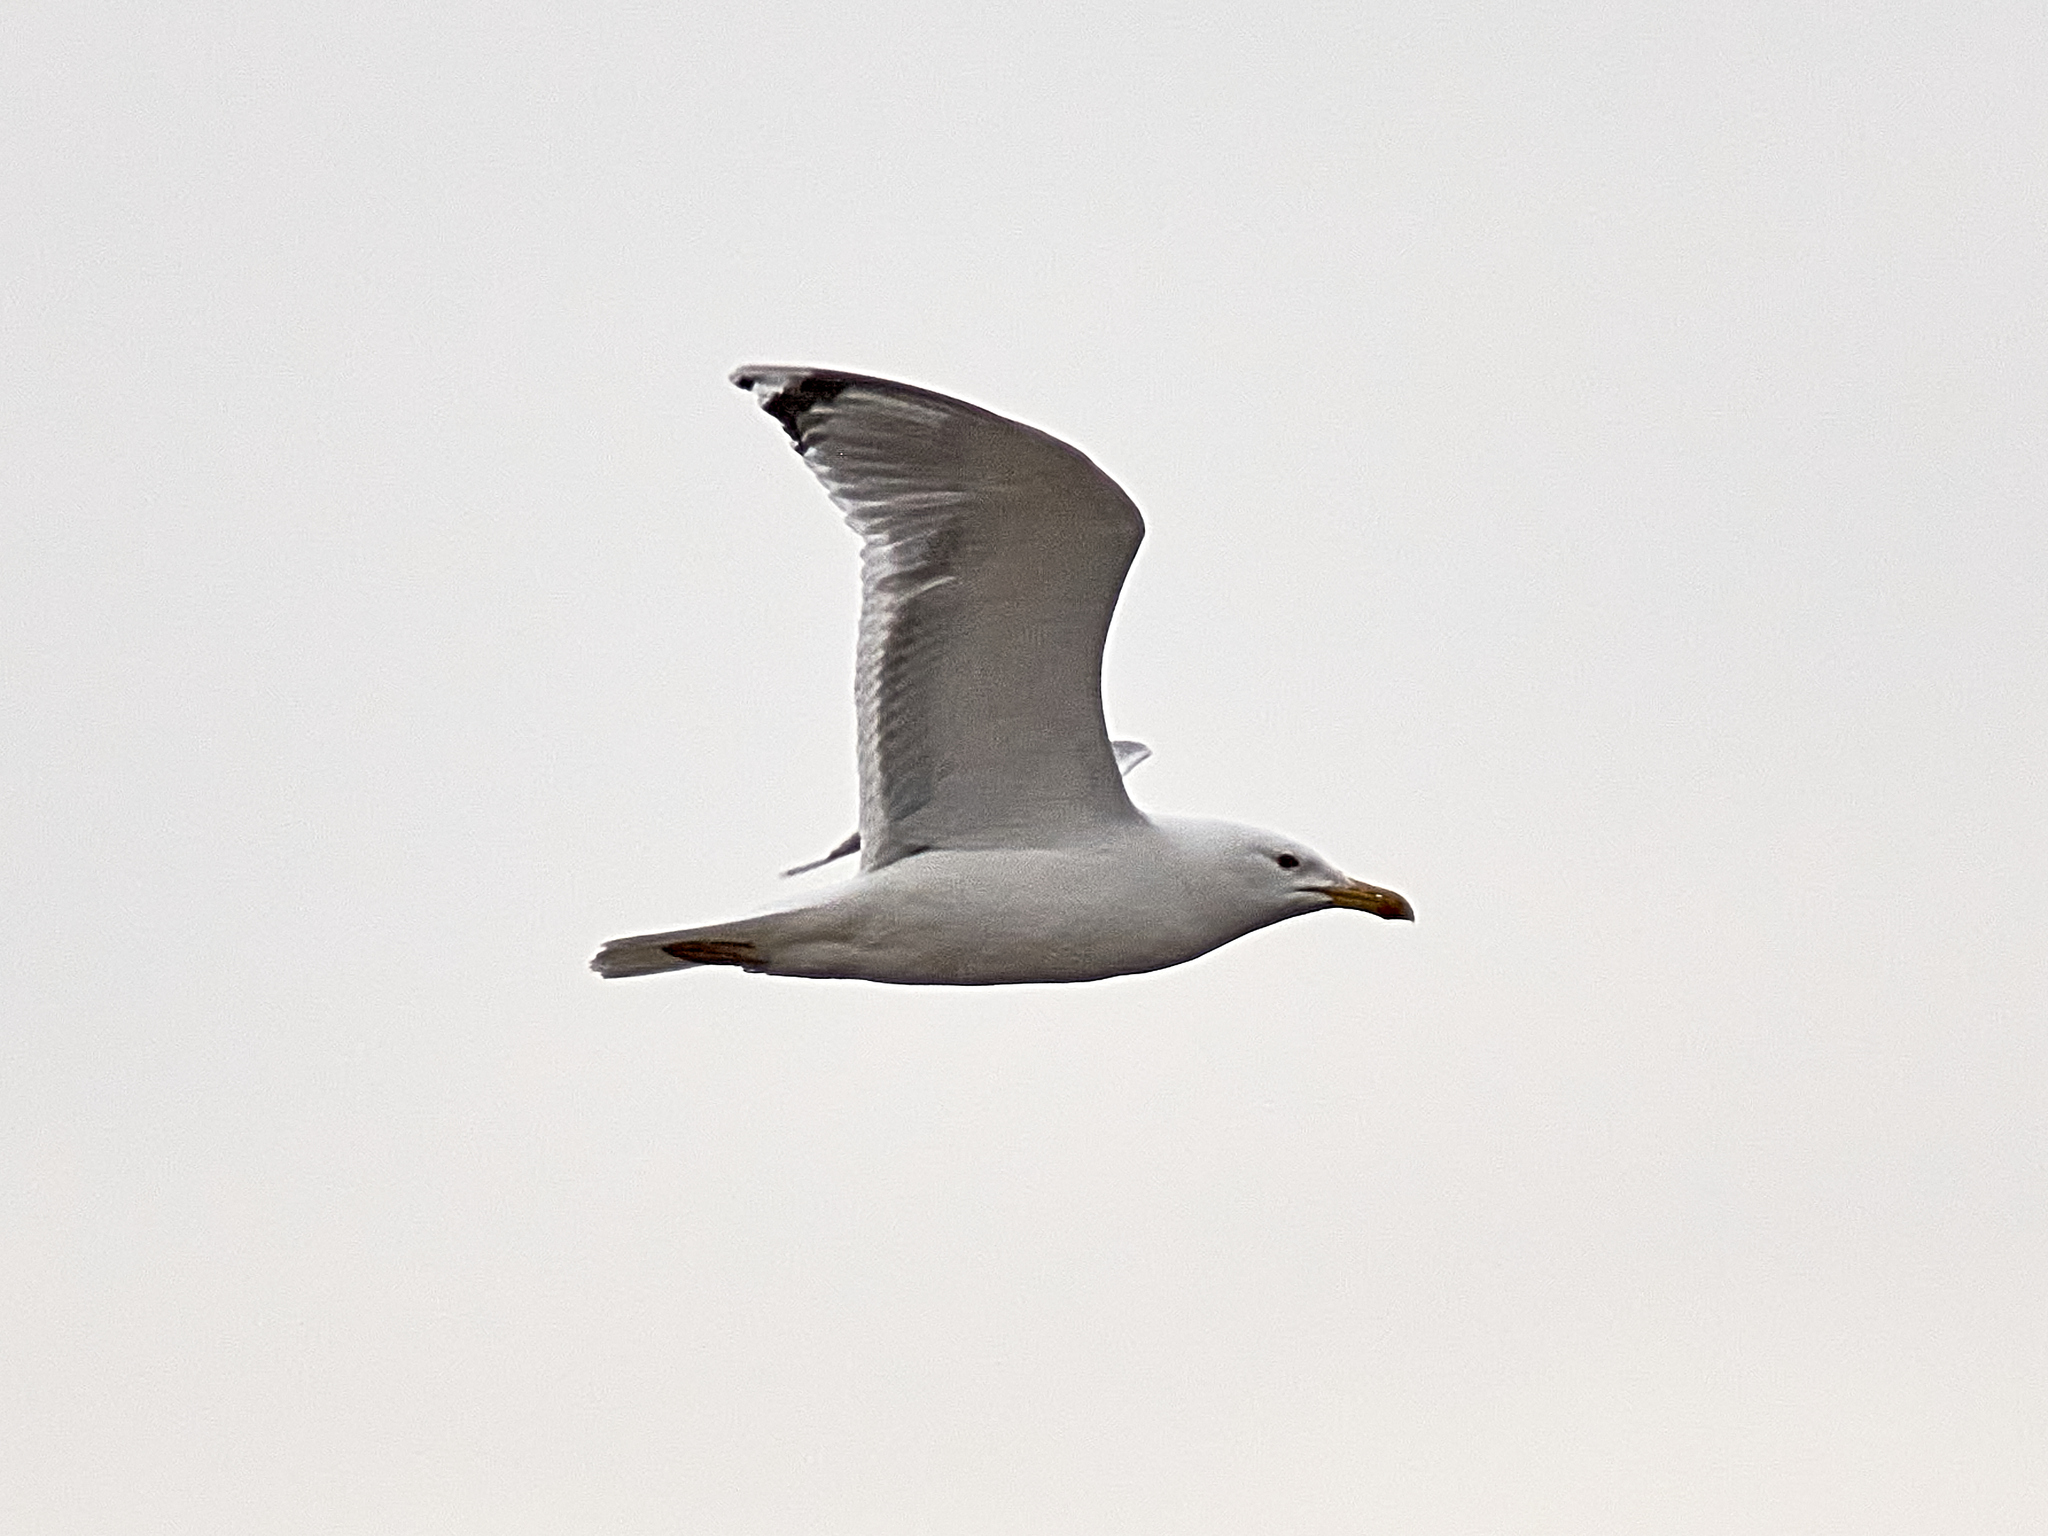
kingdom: Animalia
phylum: Chordata
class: Aves
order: Charadriiformes
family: Laridae
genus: Larus
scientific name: Larus cachinnans
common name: Caspian gull
